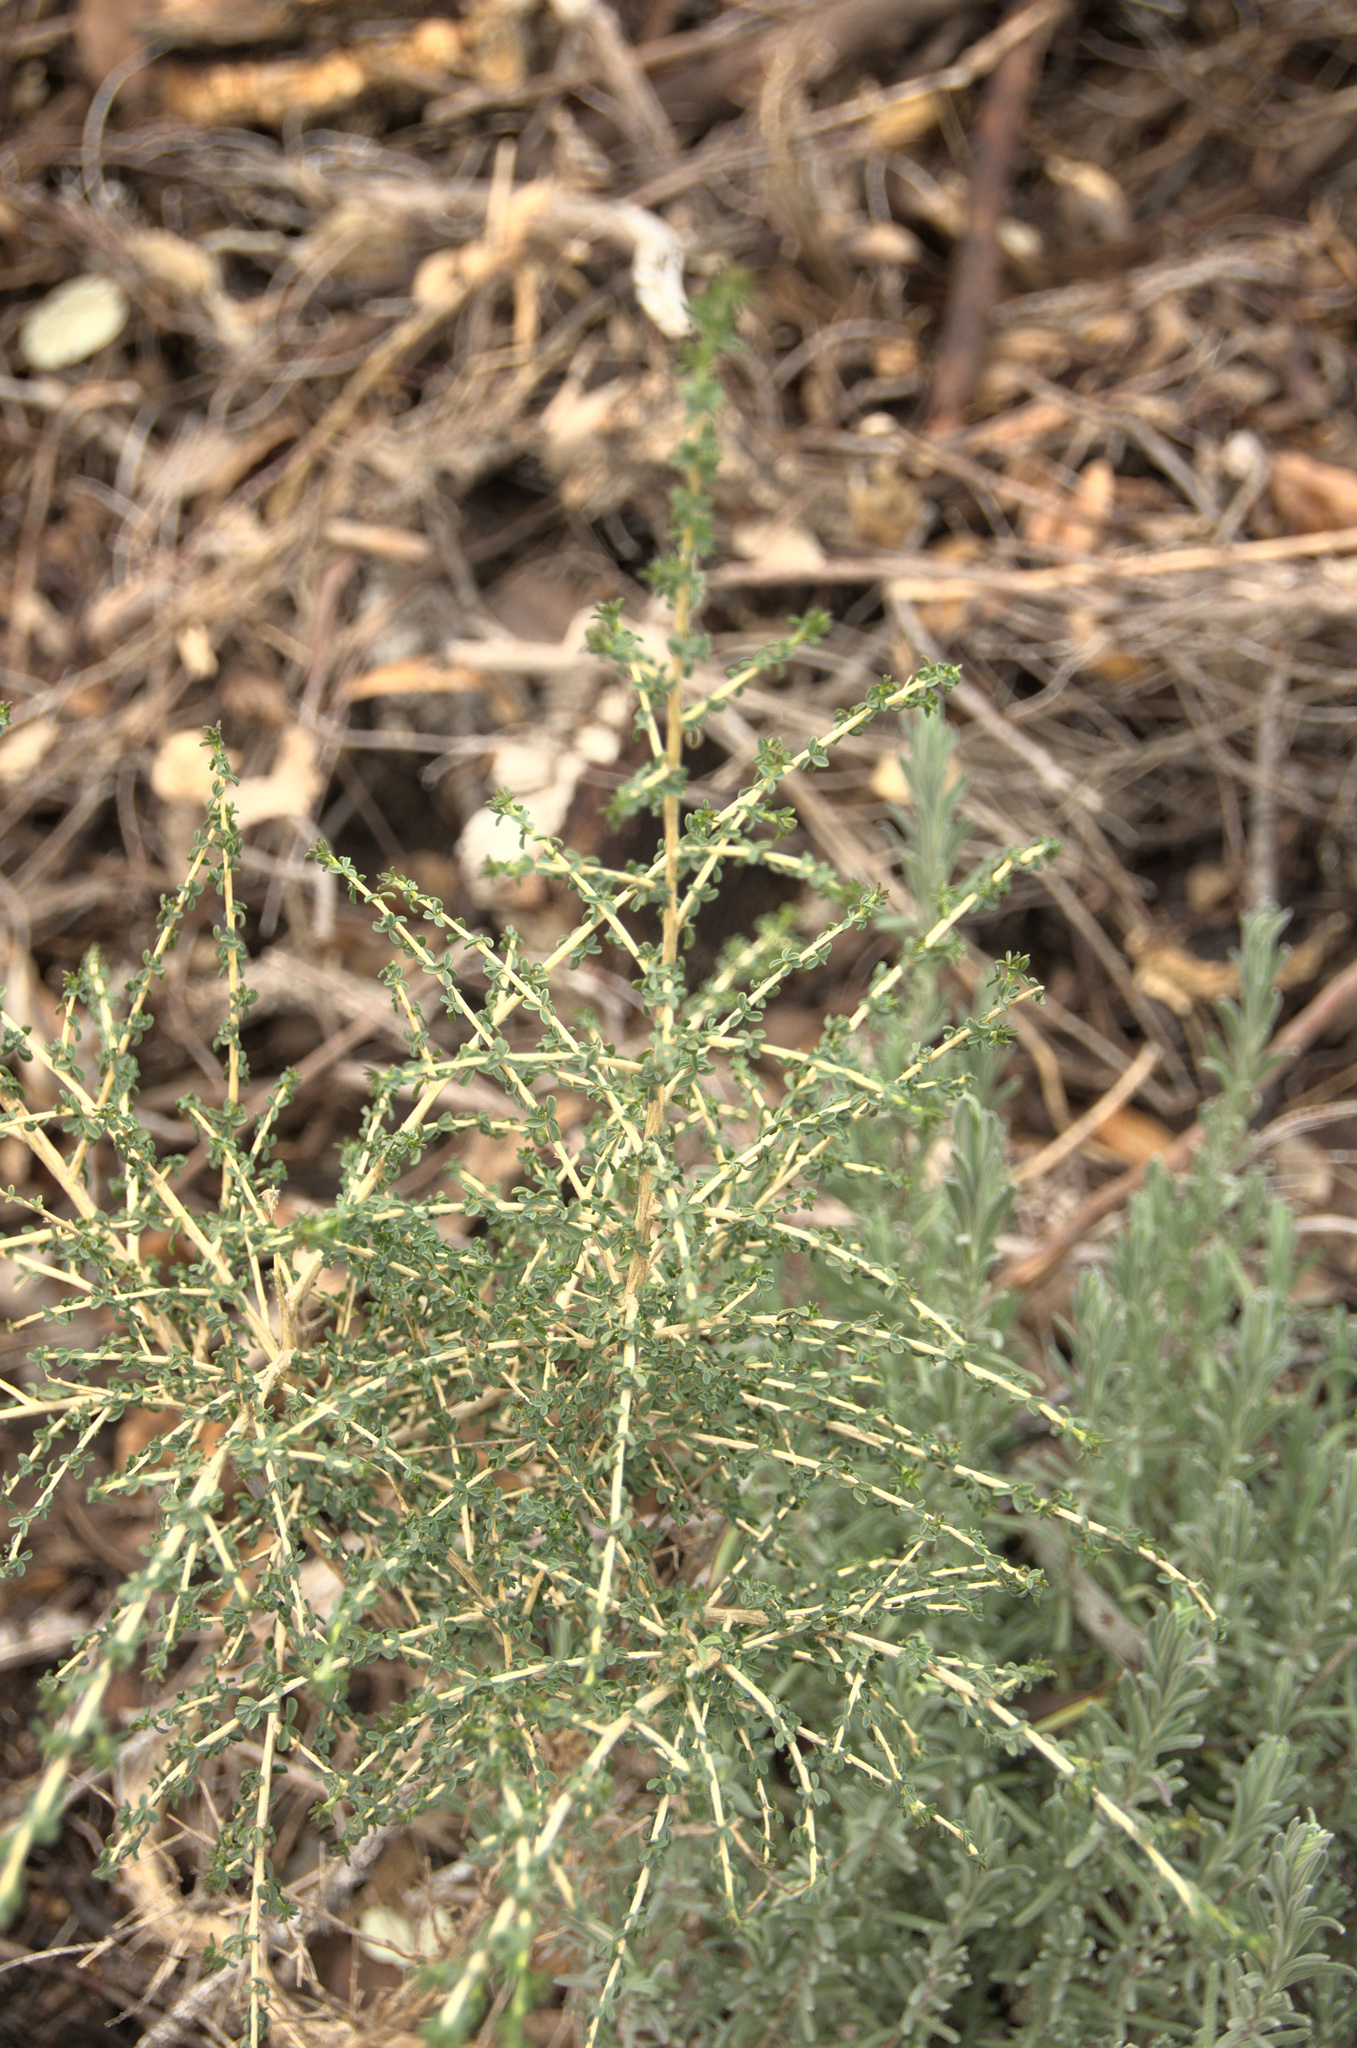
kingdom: Plantae
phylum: Tracheophyta
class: Liliopsida
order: Asparagales
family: Asparagaceae
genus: Asparagus
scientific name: Asparagus acutifolius
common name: Wild asparagus
